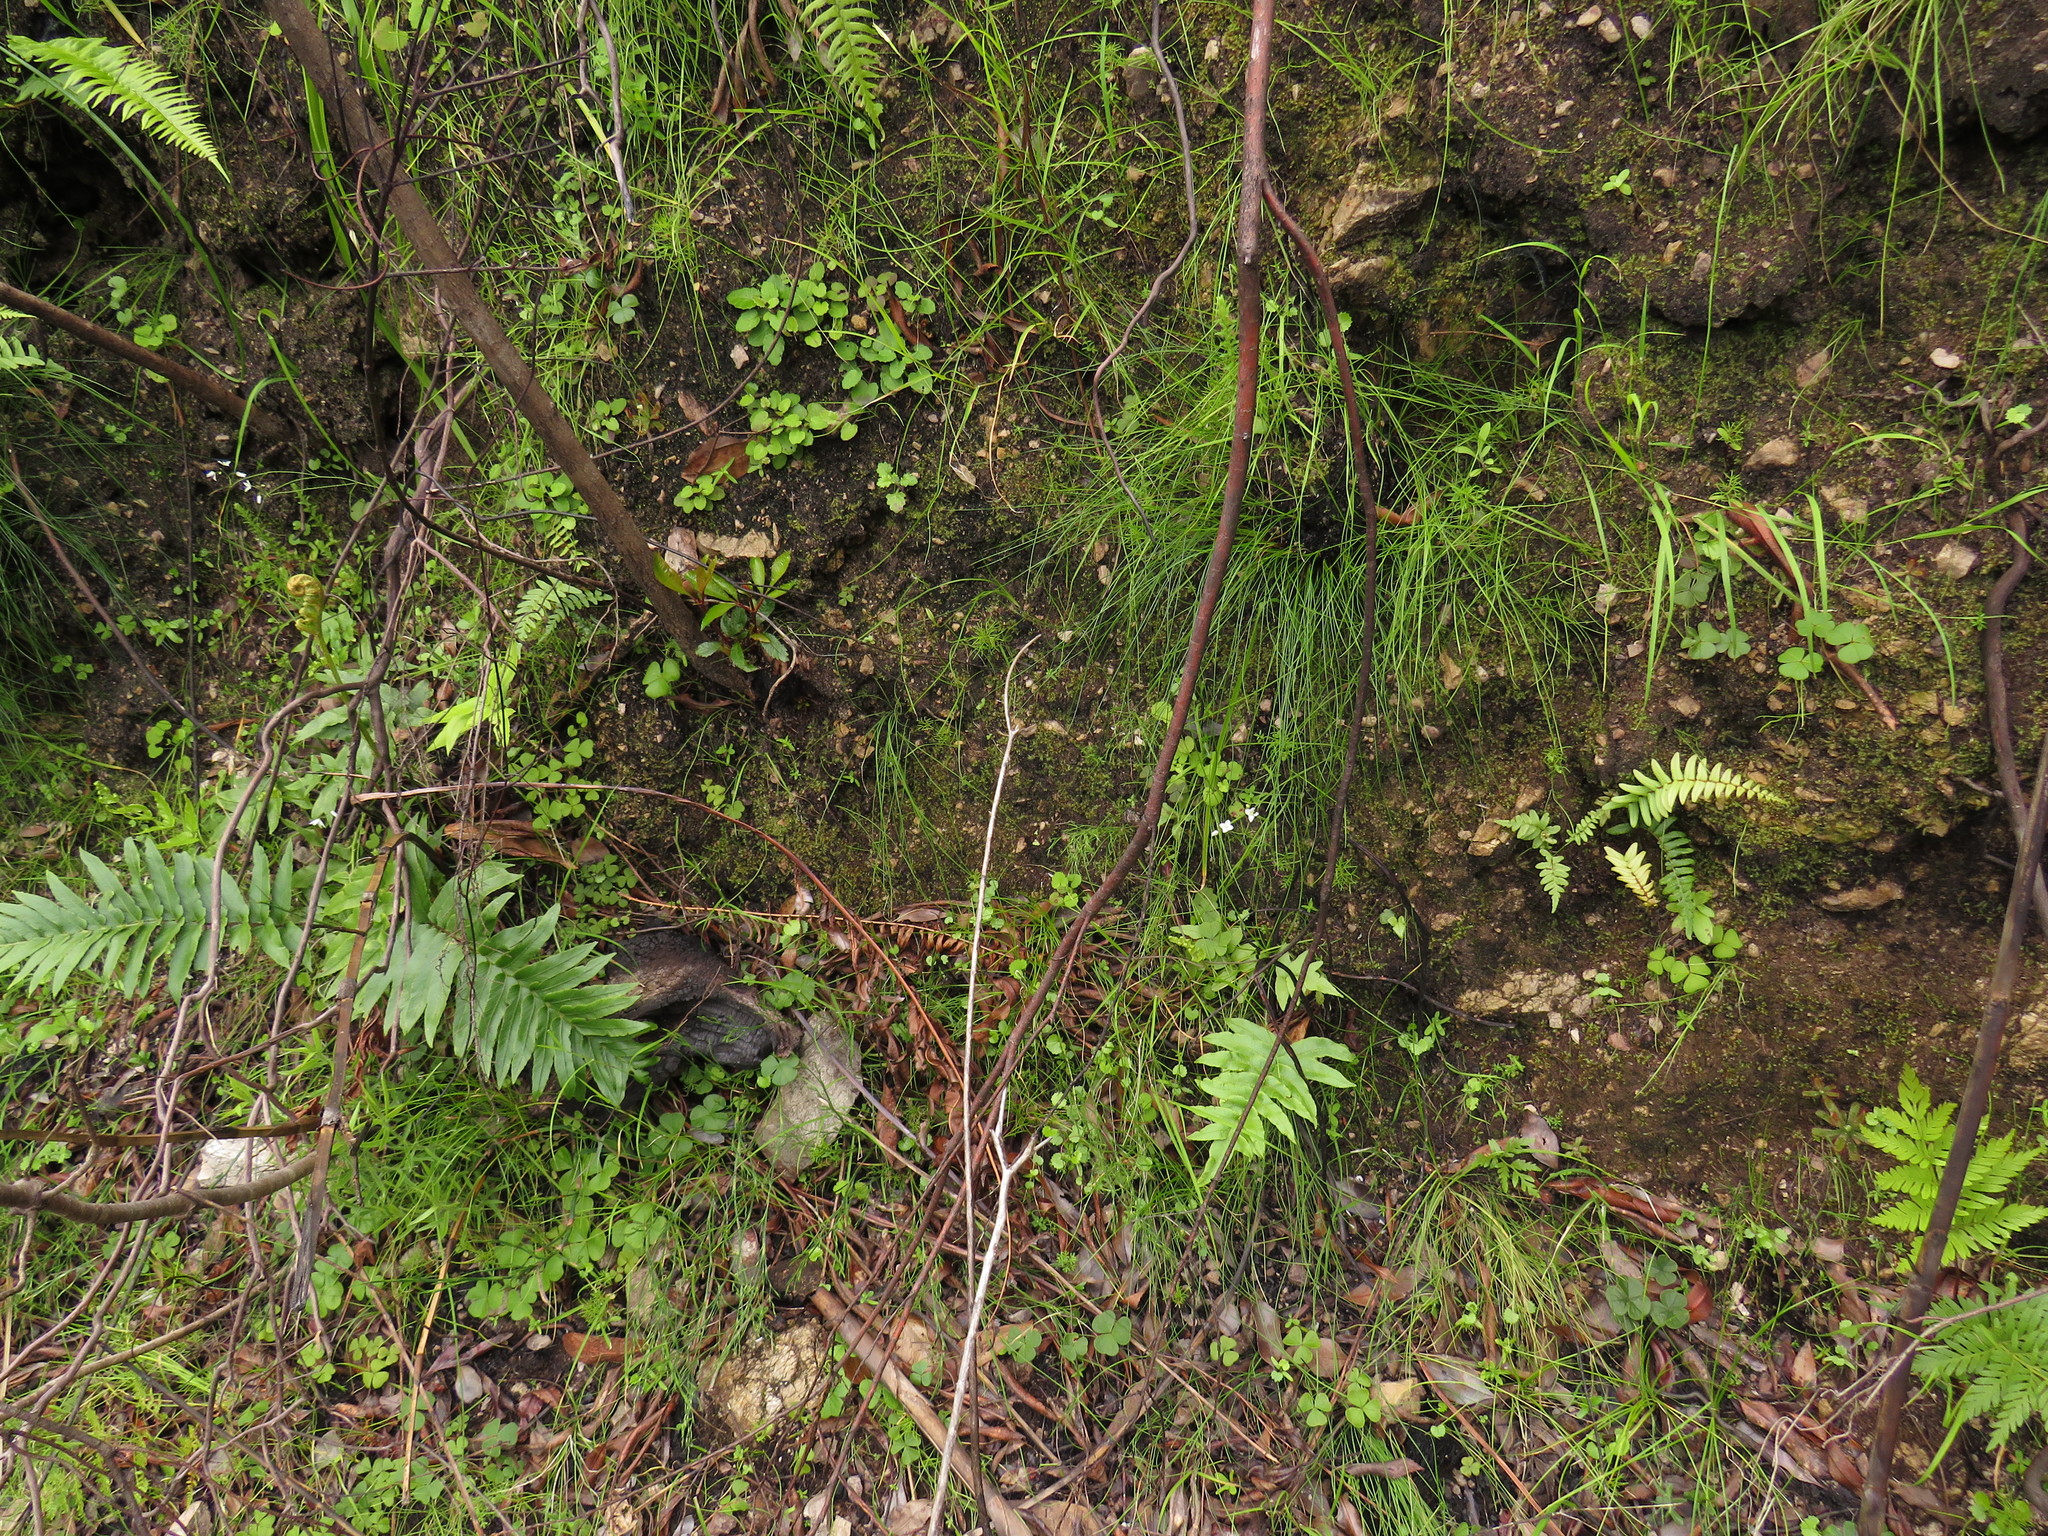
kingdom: Plantae
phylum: Tracheophyta
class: Polypodiopsida
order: Osmundales
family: Osmundaceae
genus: Todea
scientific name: Todea barbara
